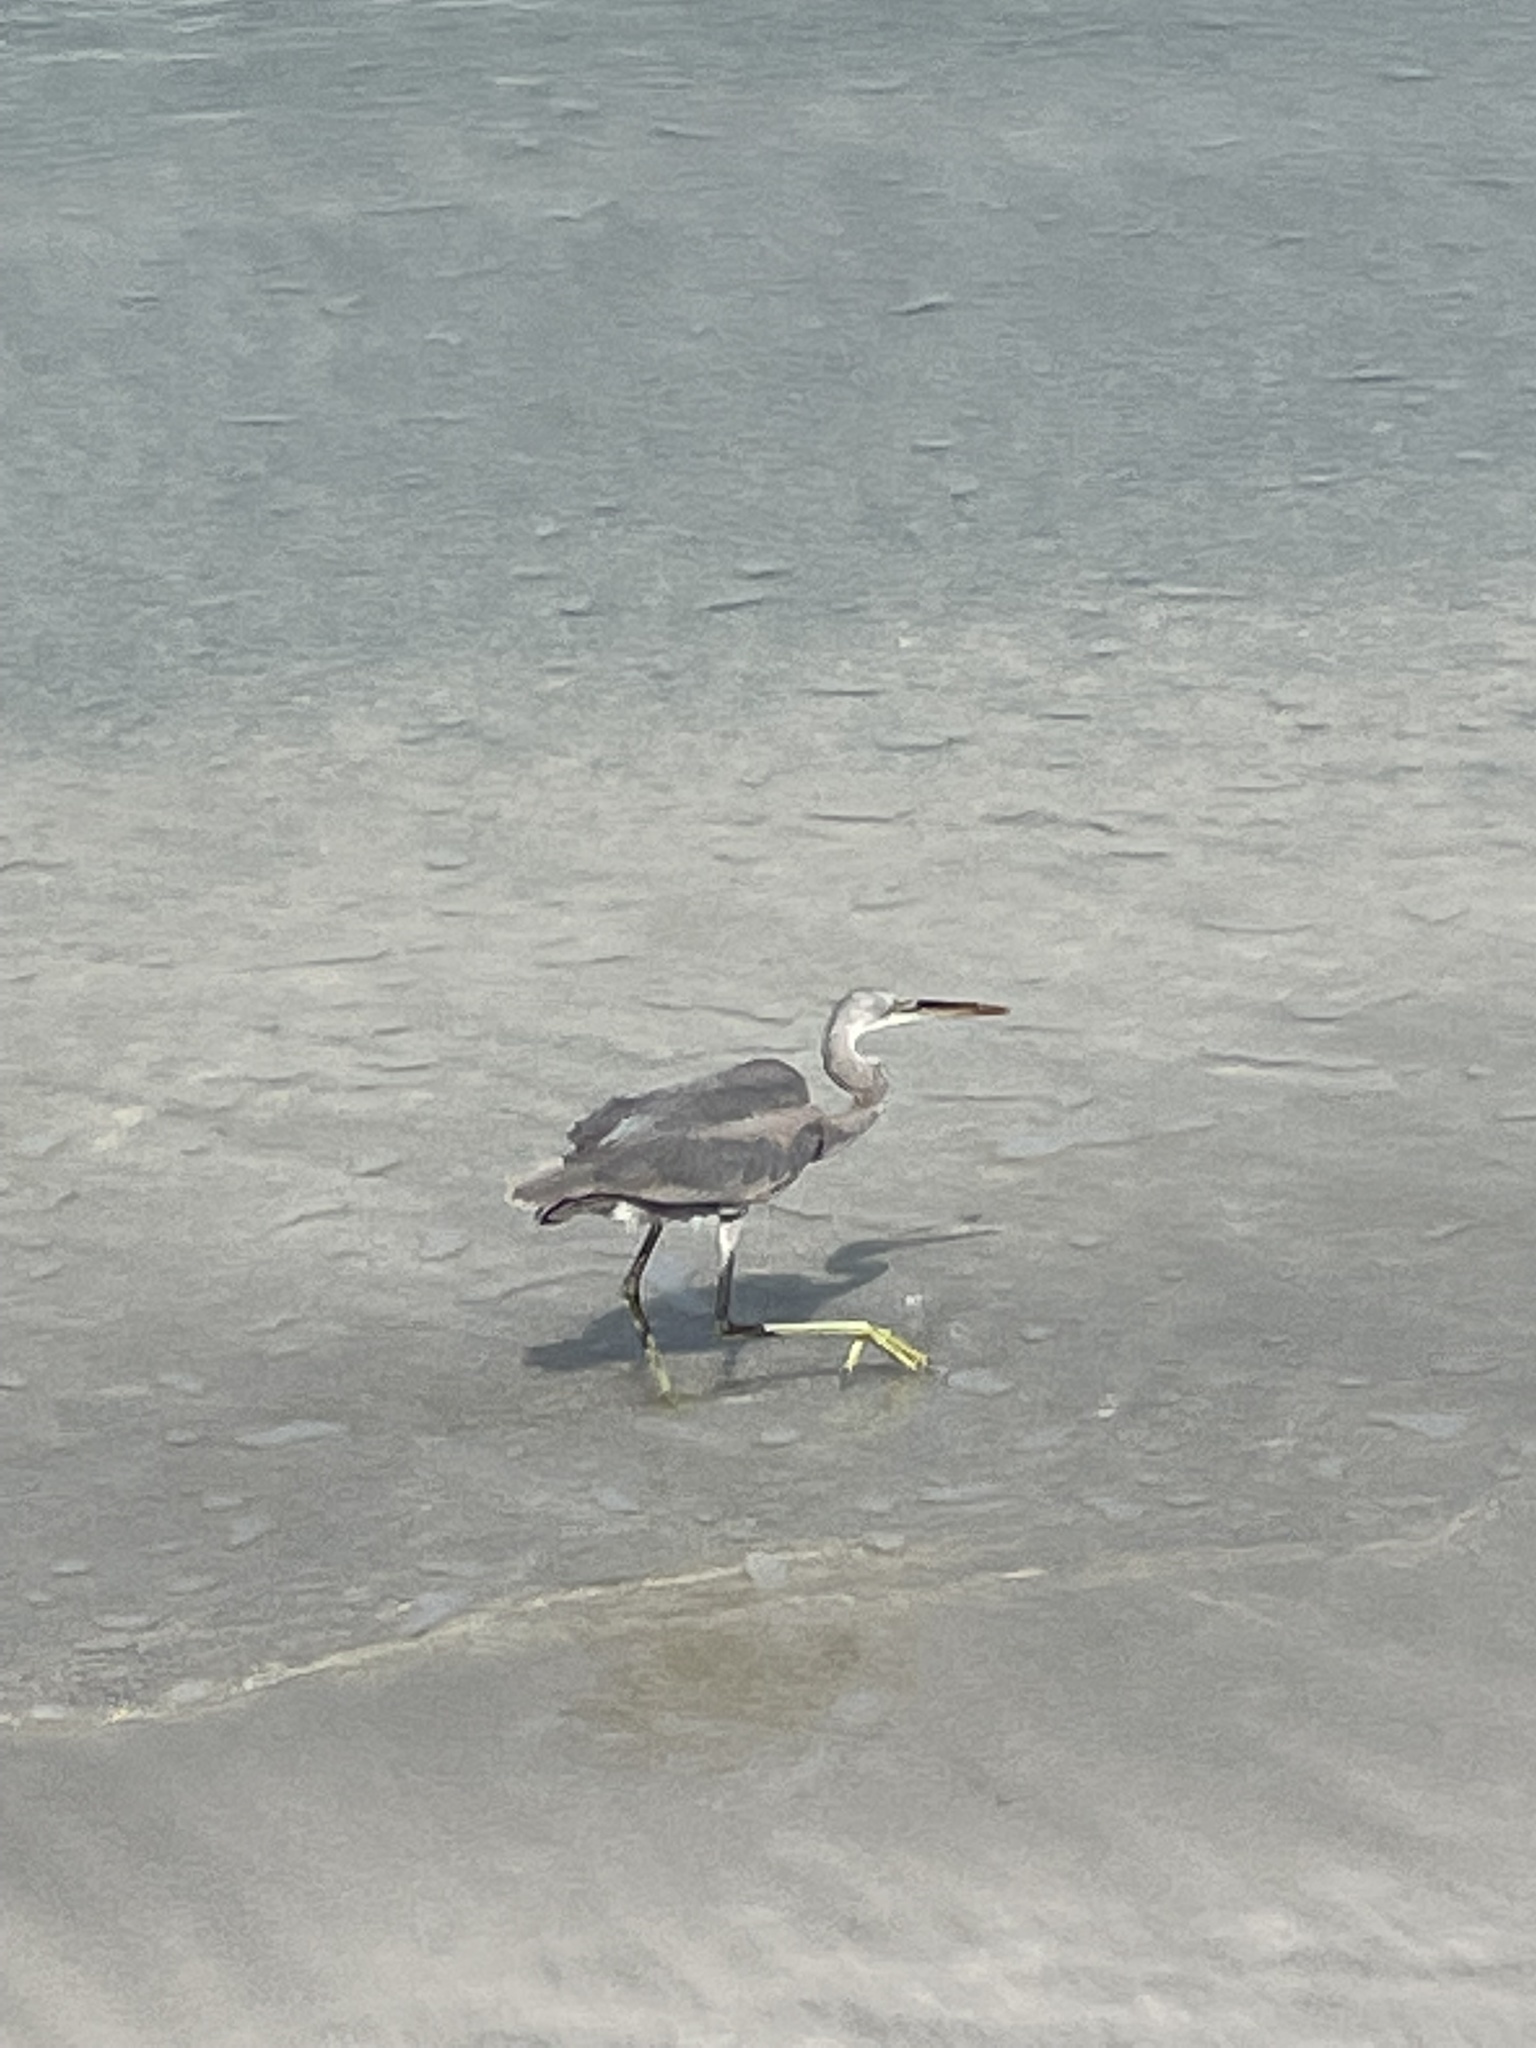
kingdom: Animalia
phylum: Chordata
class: Aves
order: Pelecaniformes
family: Ardeidae
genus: Egretta
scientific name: Egretta gularis
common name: Western reef-heron
